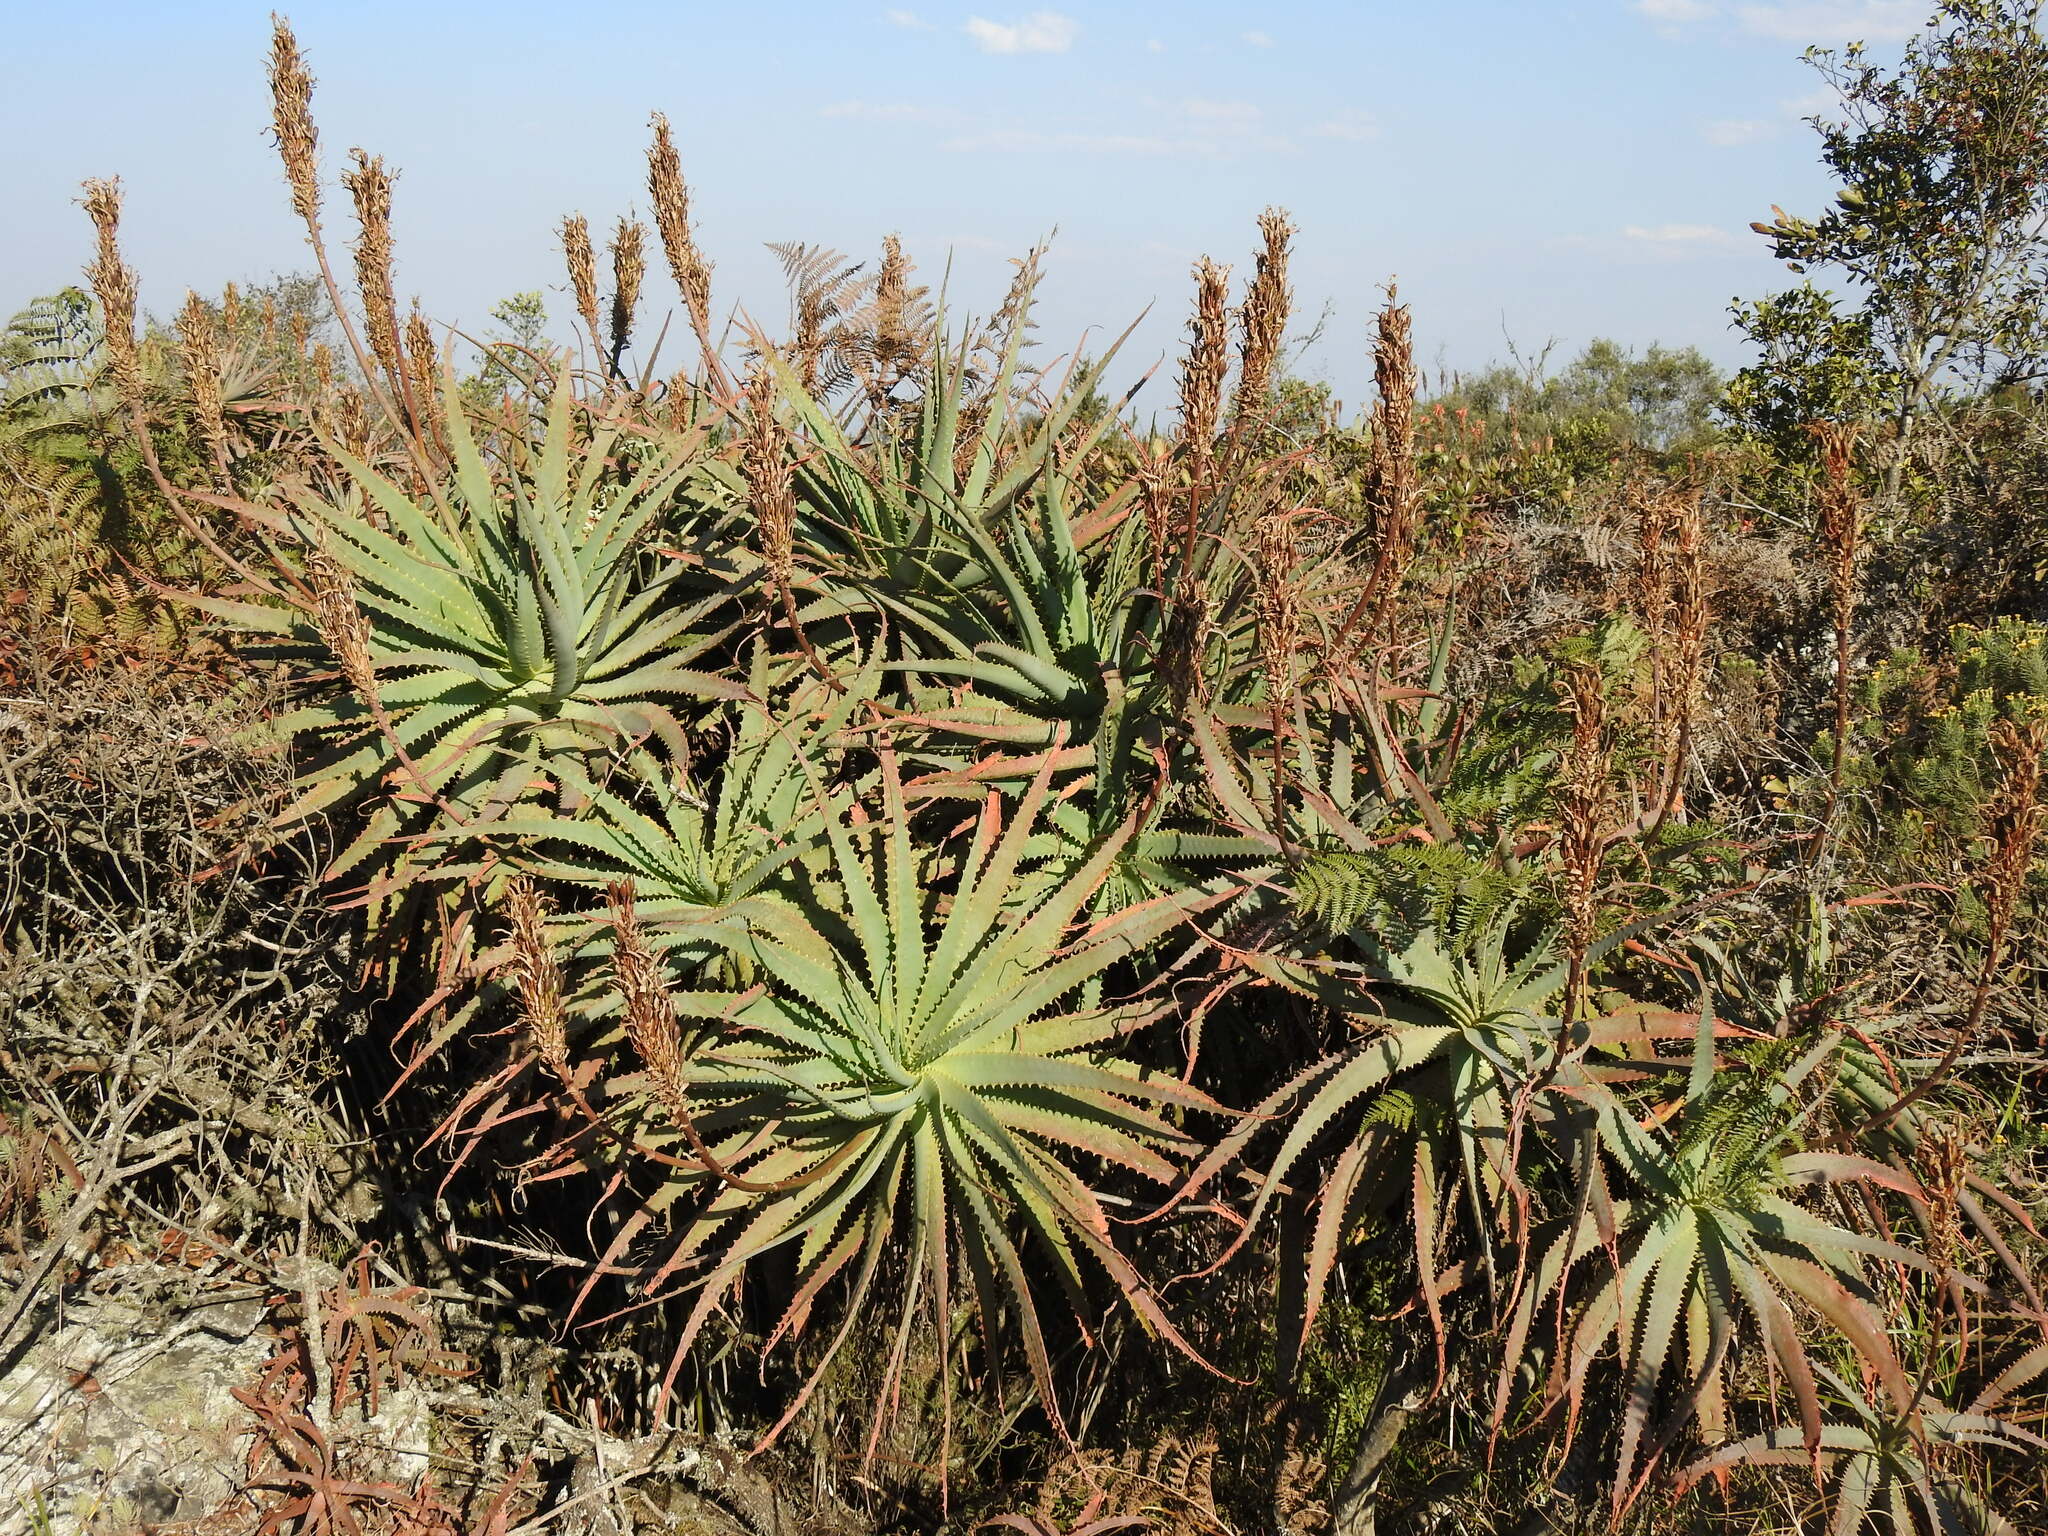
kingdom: Plantae
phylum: Tracheophyta
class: Liliopsida
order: Asparagales
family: Asphodelaceae
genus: Aloe
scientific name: Aloe arborescens
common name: Candelabra aloe
